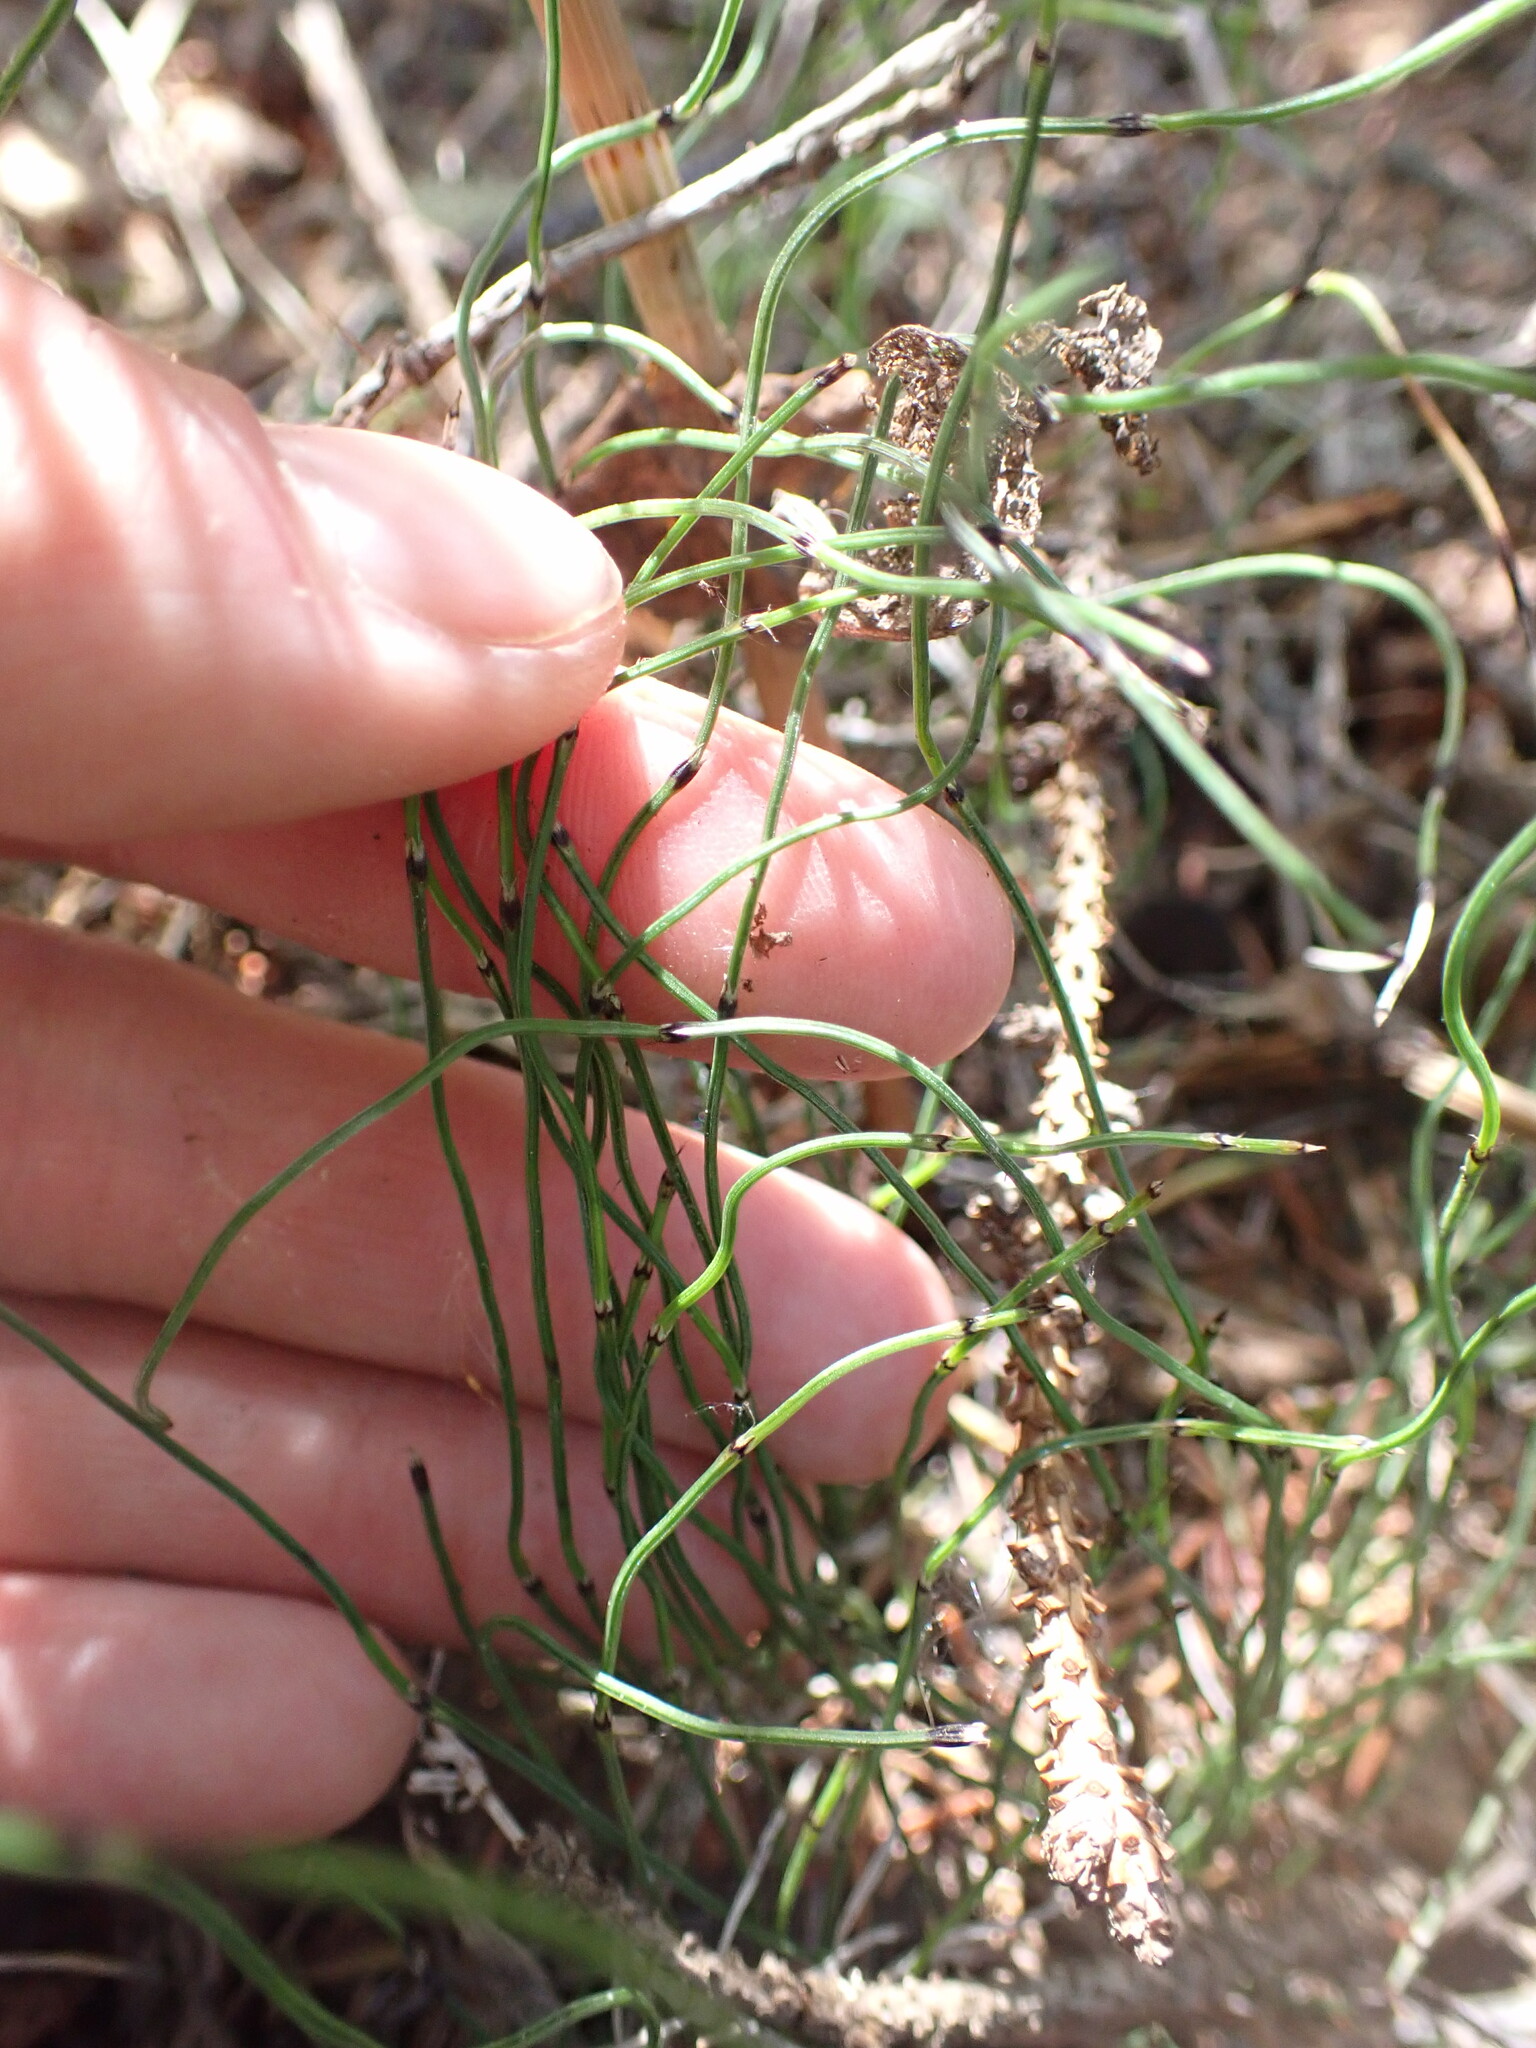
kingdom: Plantae
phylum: Tracheophyta
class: Polypodiopsida
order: Equisetales
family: Equisetaceae
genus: Equisetum
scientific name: Equisetum scirpoides
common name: Delicate horsetail
